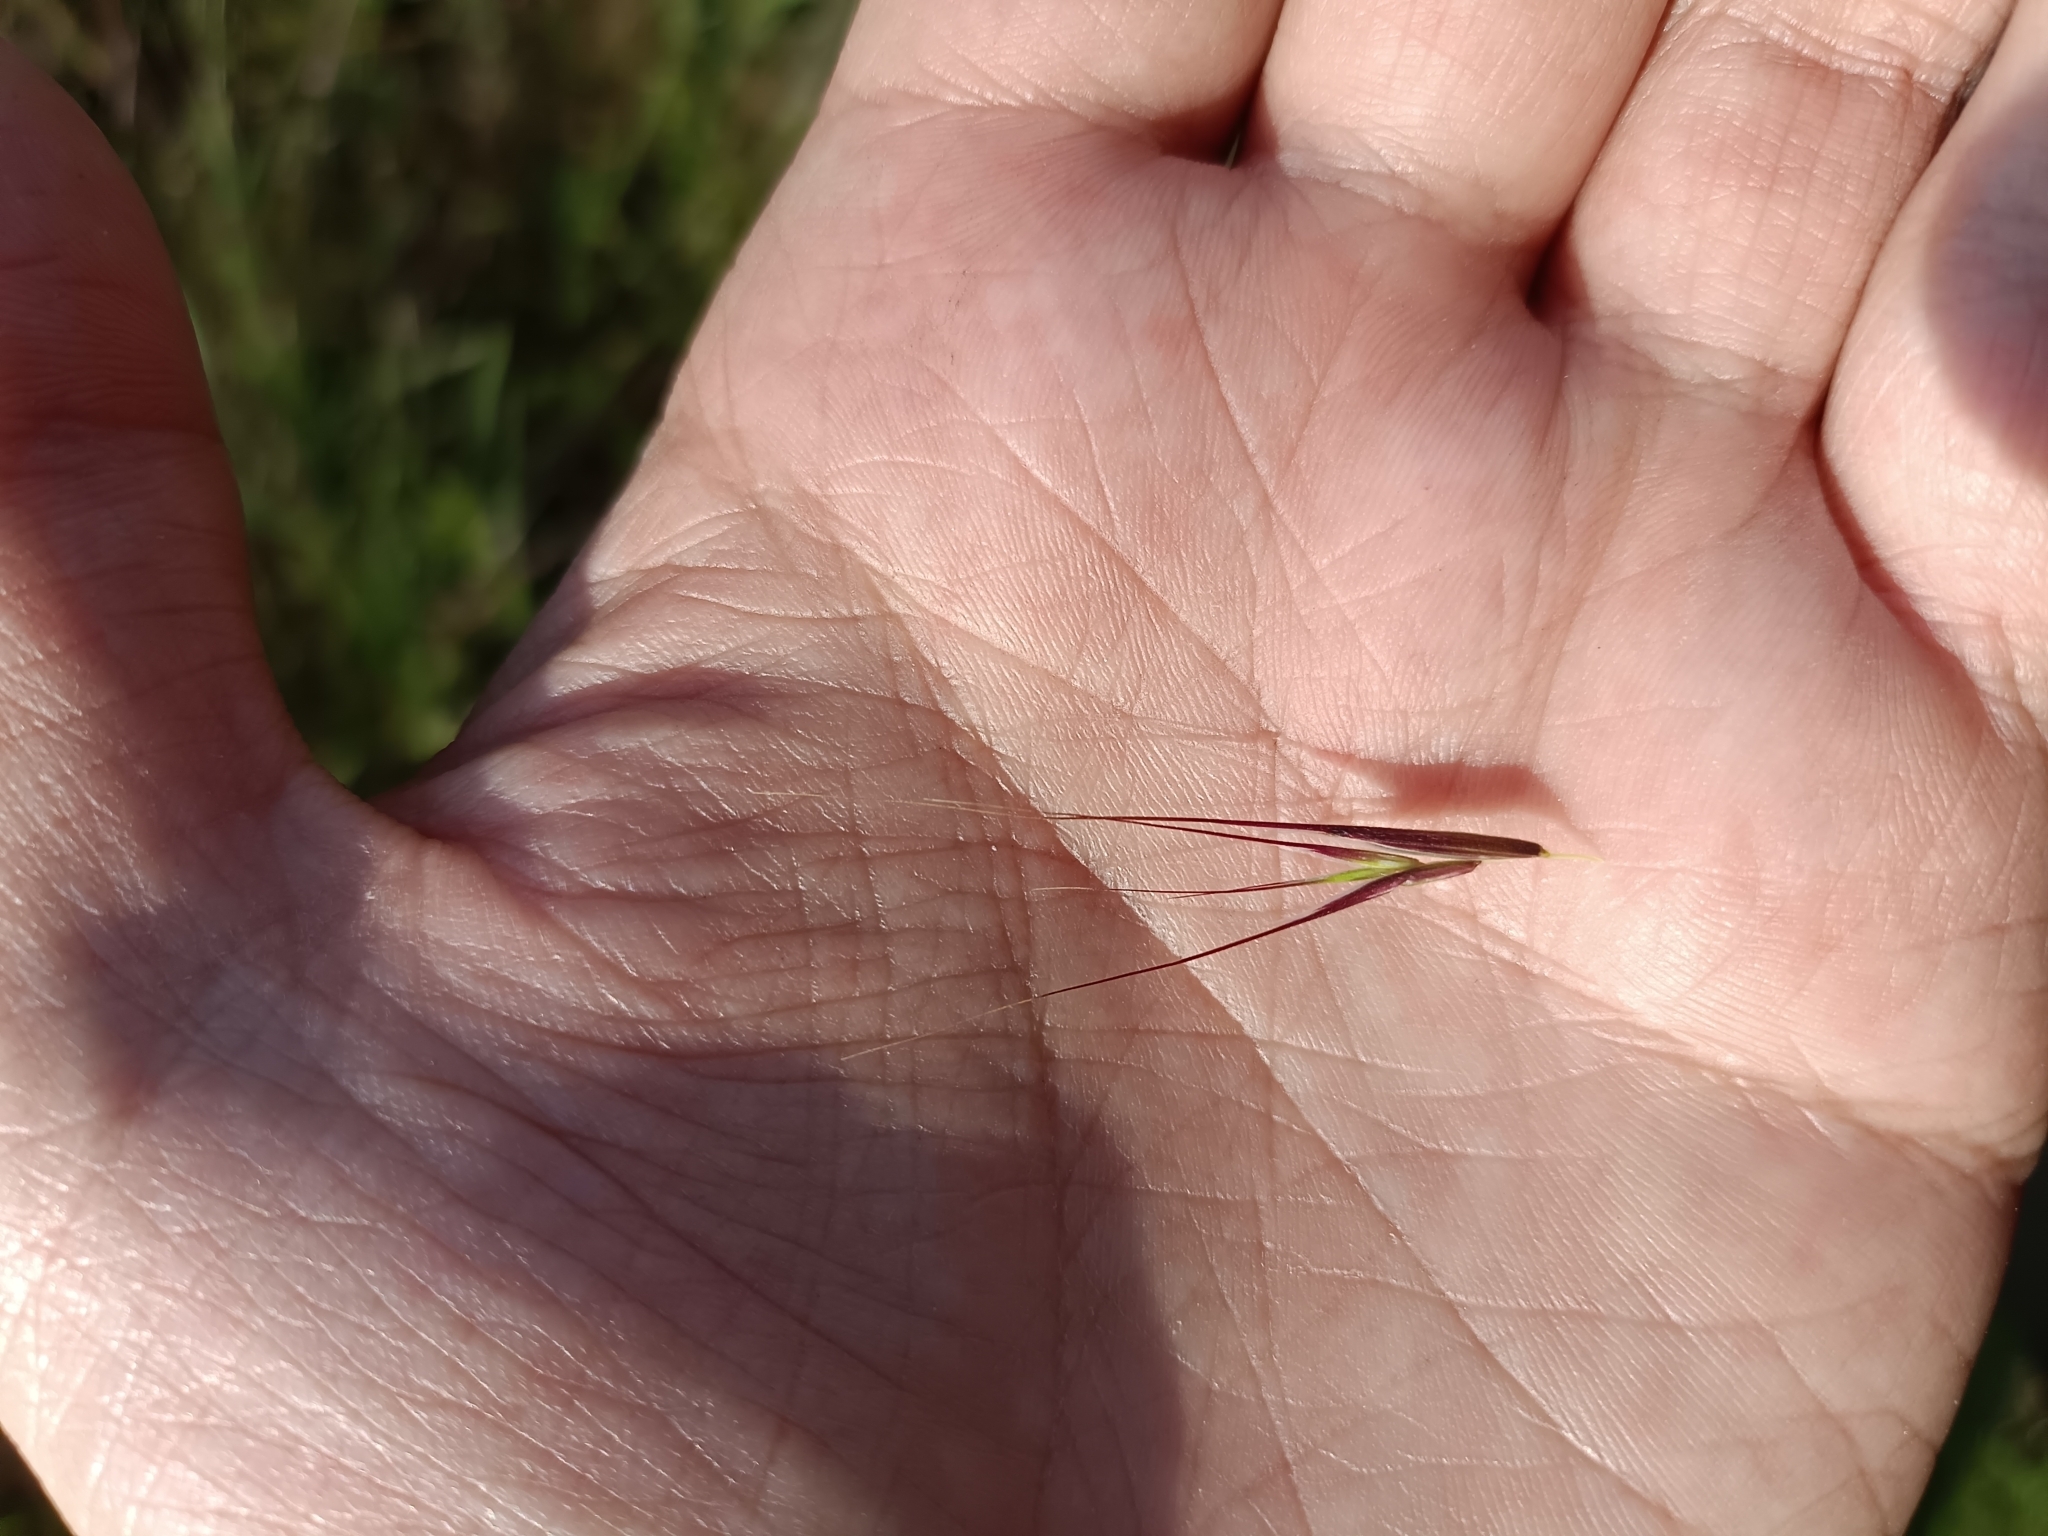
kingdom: Plantae
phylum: Tracheophyta
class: Liliopsida
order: Poales
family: Poaceae
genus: Bromus
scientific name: Bromus sterilis
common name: Poverty brome
